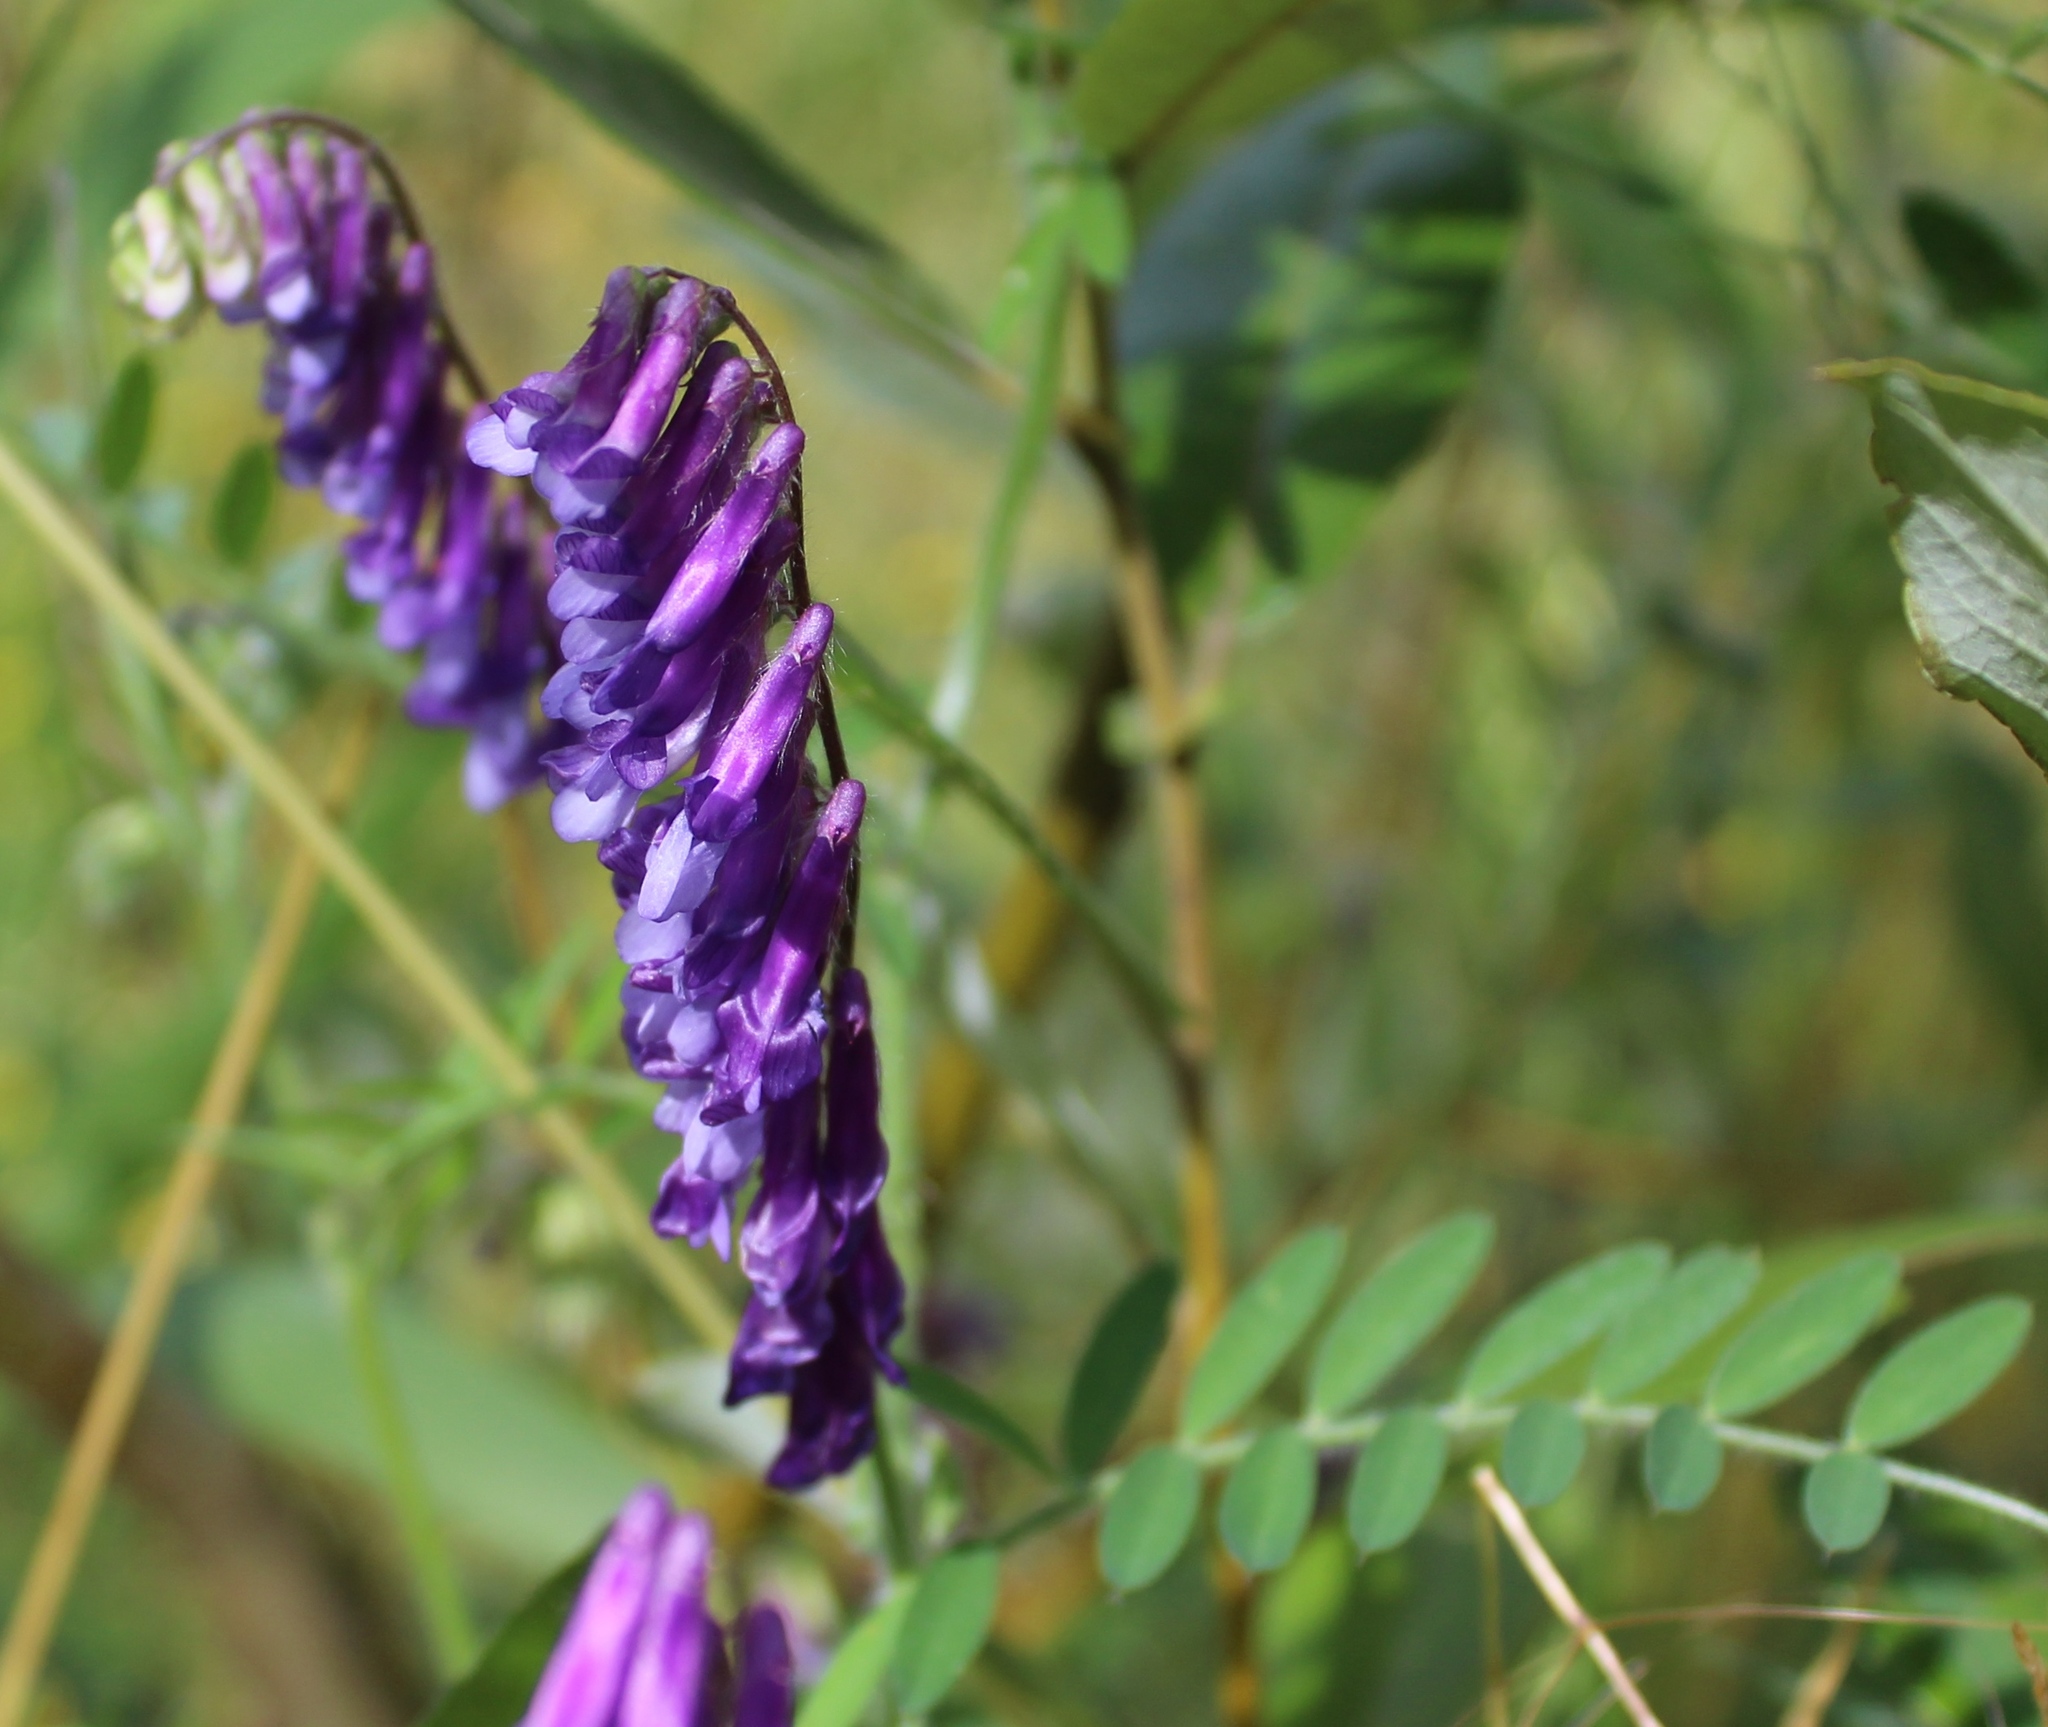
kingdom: Plantae
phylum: Tracheophyta
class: Magnoliopsida
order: Fabales
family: Fabaceae
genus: Vicia
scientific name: Vicia villosa
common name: Fodder vetch
